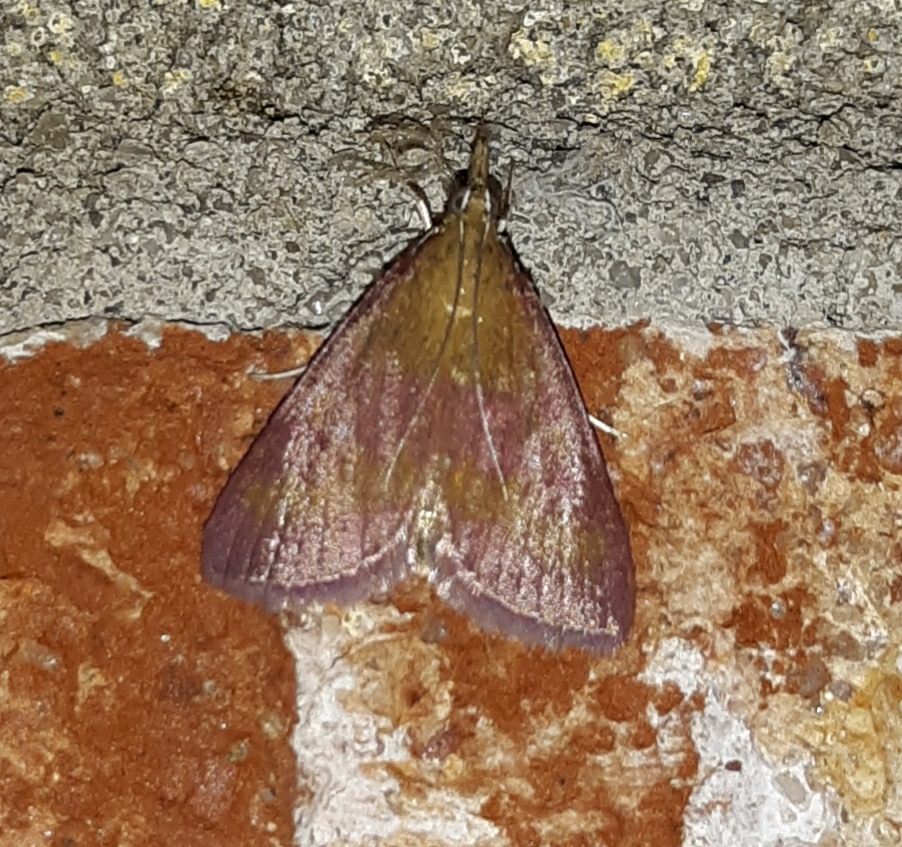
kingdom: Animalia
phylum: Arthropoda
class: Insecta
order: Lepidoptera
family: Crambidae
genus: Pyrausta
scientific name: Pyrausta laticlavia
